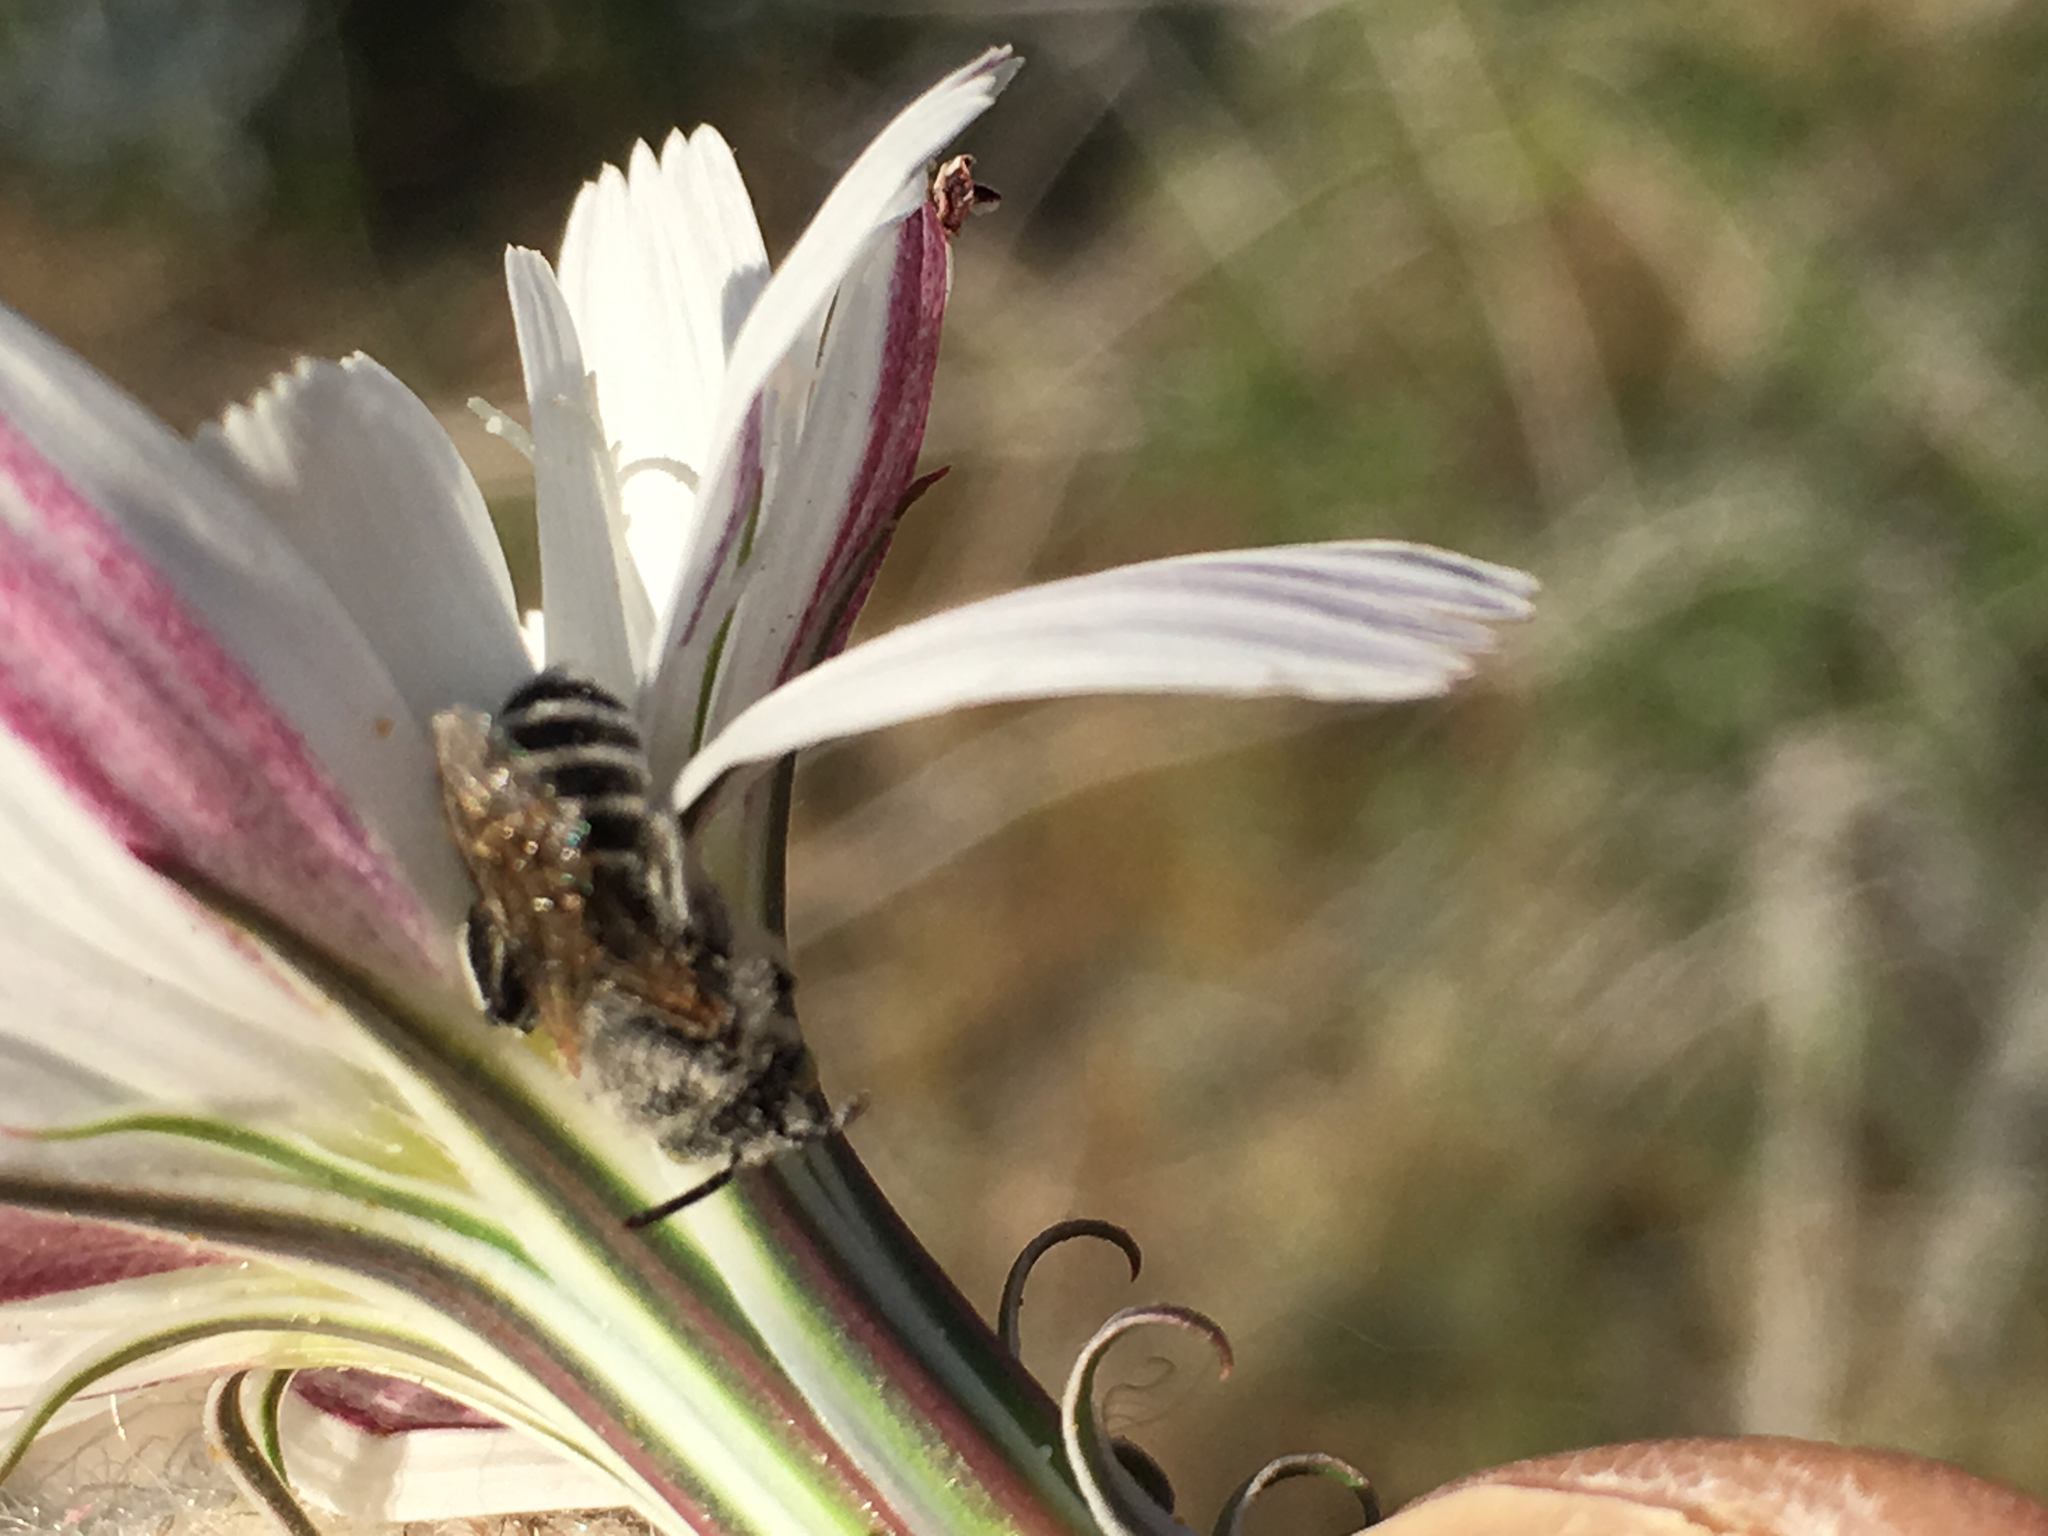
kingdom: Animalia
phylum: Arthropoda
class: Insecta
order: Hymenoptera
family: Melittidae
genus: Hesperapis
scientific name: Hesperapis
